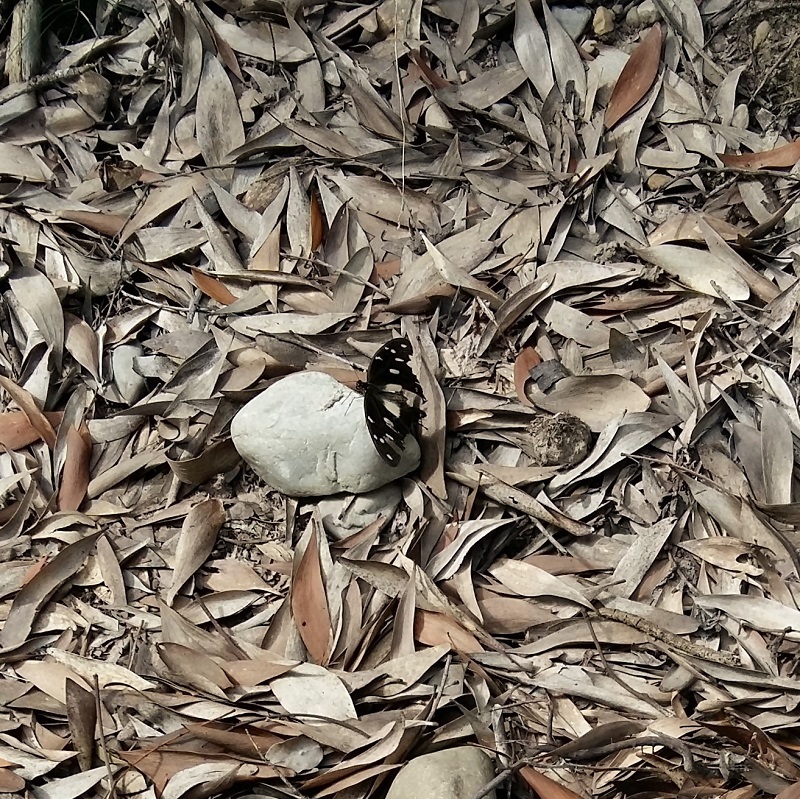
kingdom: Animalia
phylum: Arthropoda
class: Insecta
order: Lepidoptera
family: Papilionidae
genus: Papilio
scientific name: Papilio dardanus
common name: Flying handkerchief
